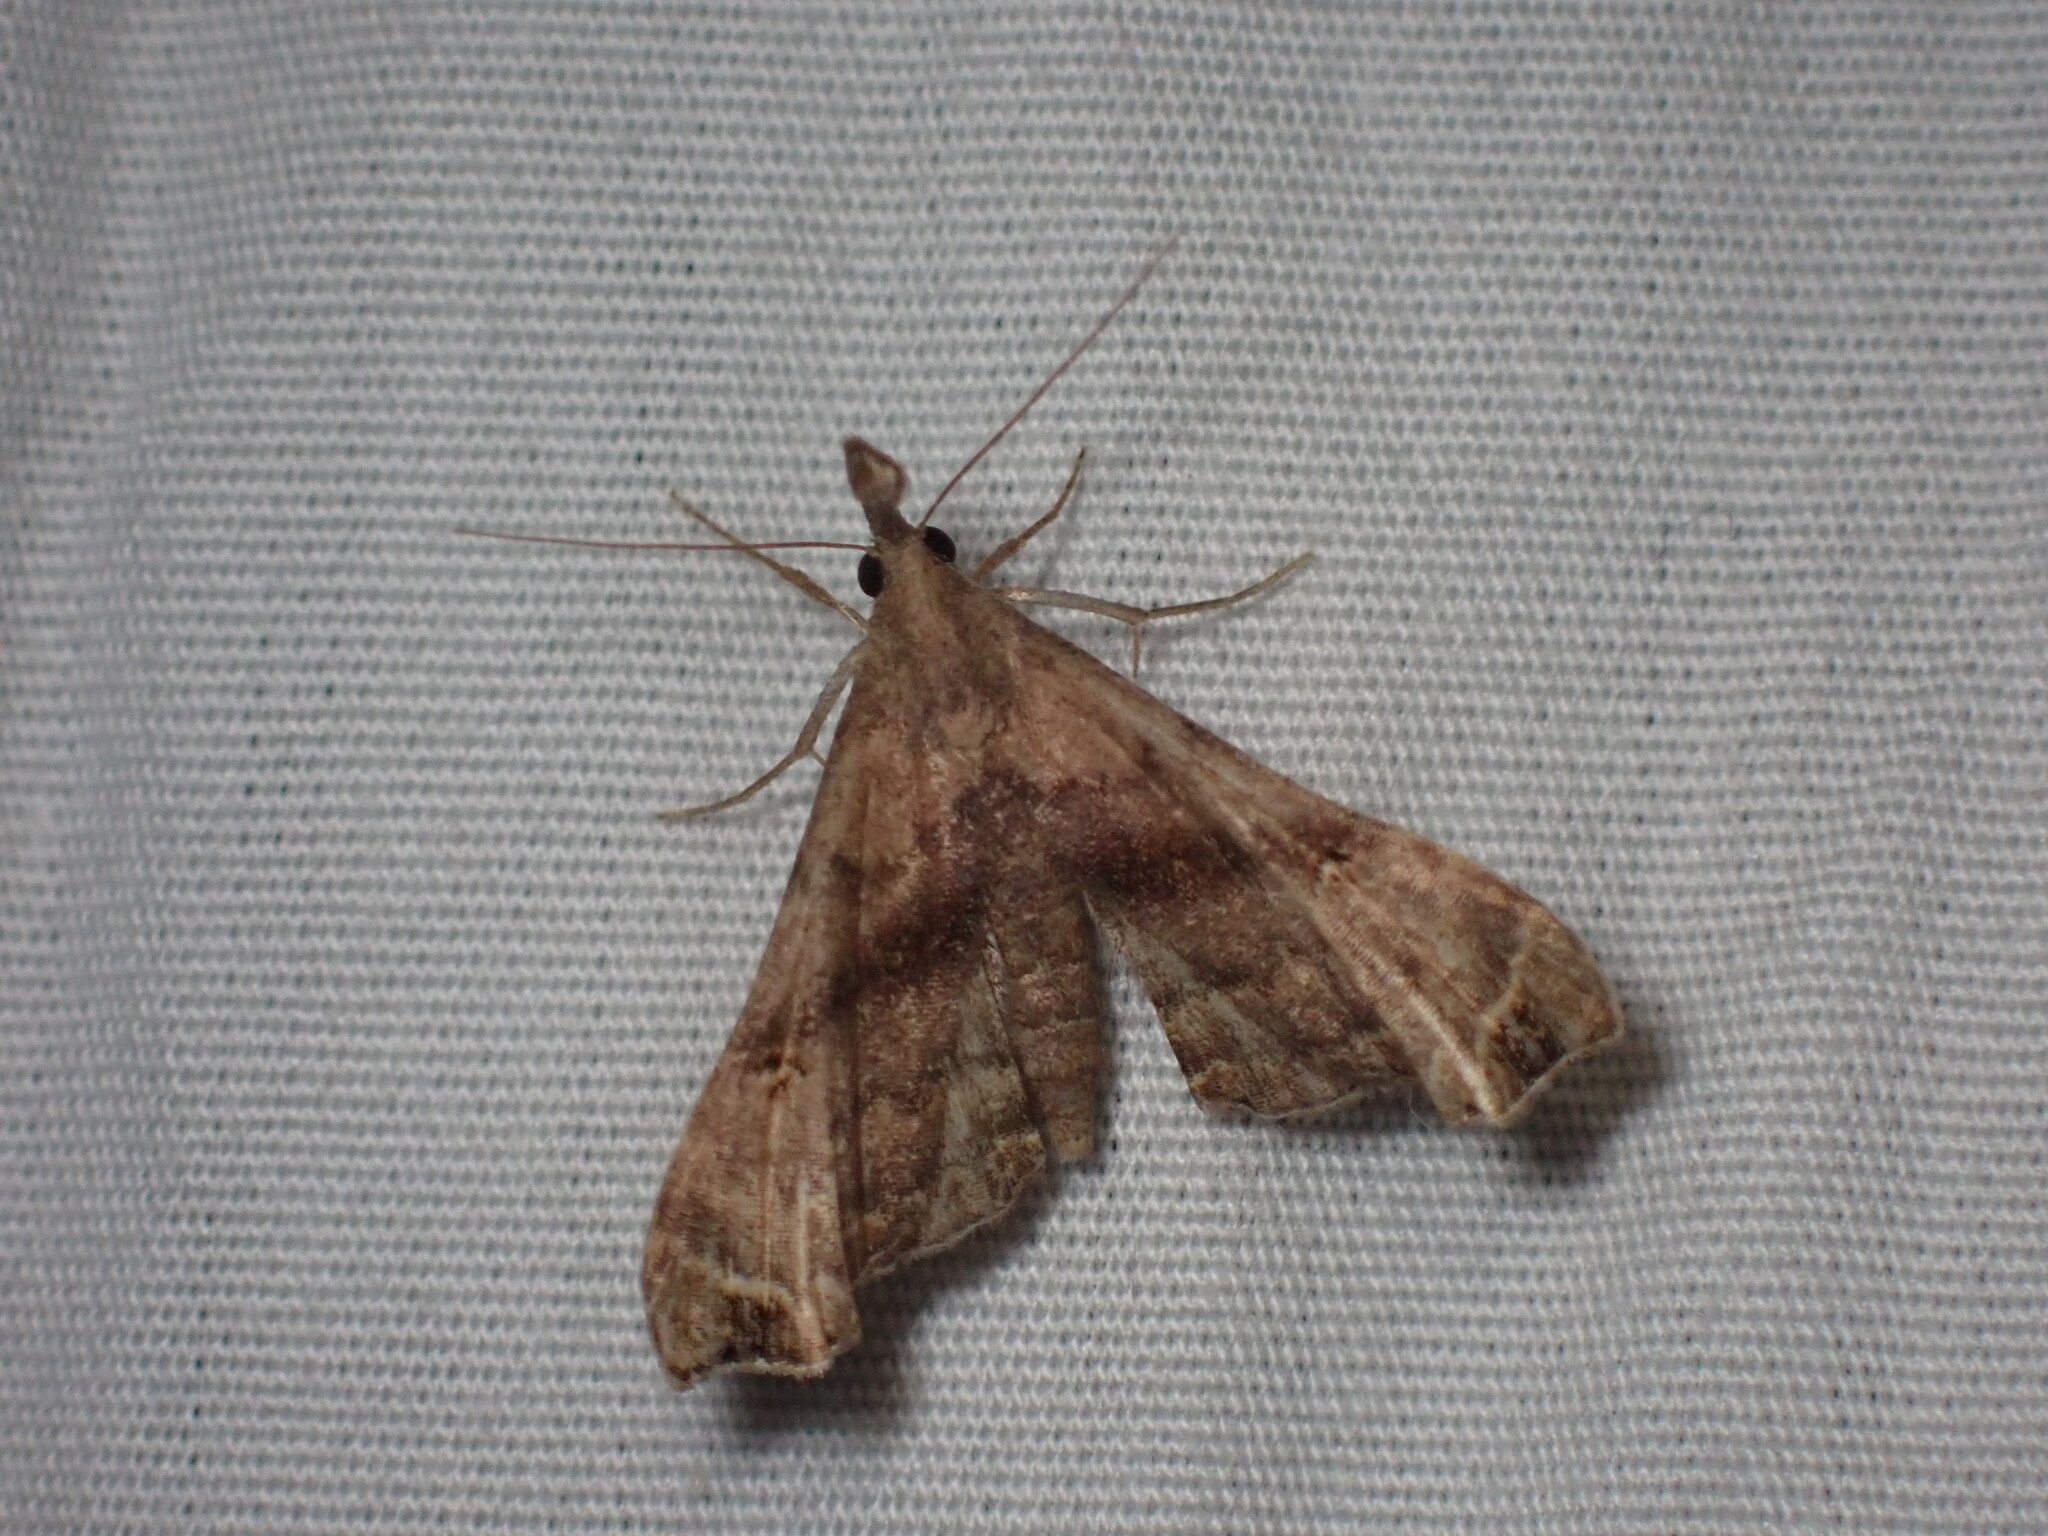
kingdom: Animalia
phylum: Arthropoda
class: Insecta
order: Lepidoptera
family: Erebidae
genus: Palthis
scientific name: Palthis asopialis
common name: Faint-spotted palthis moth
